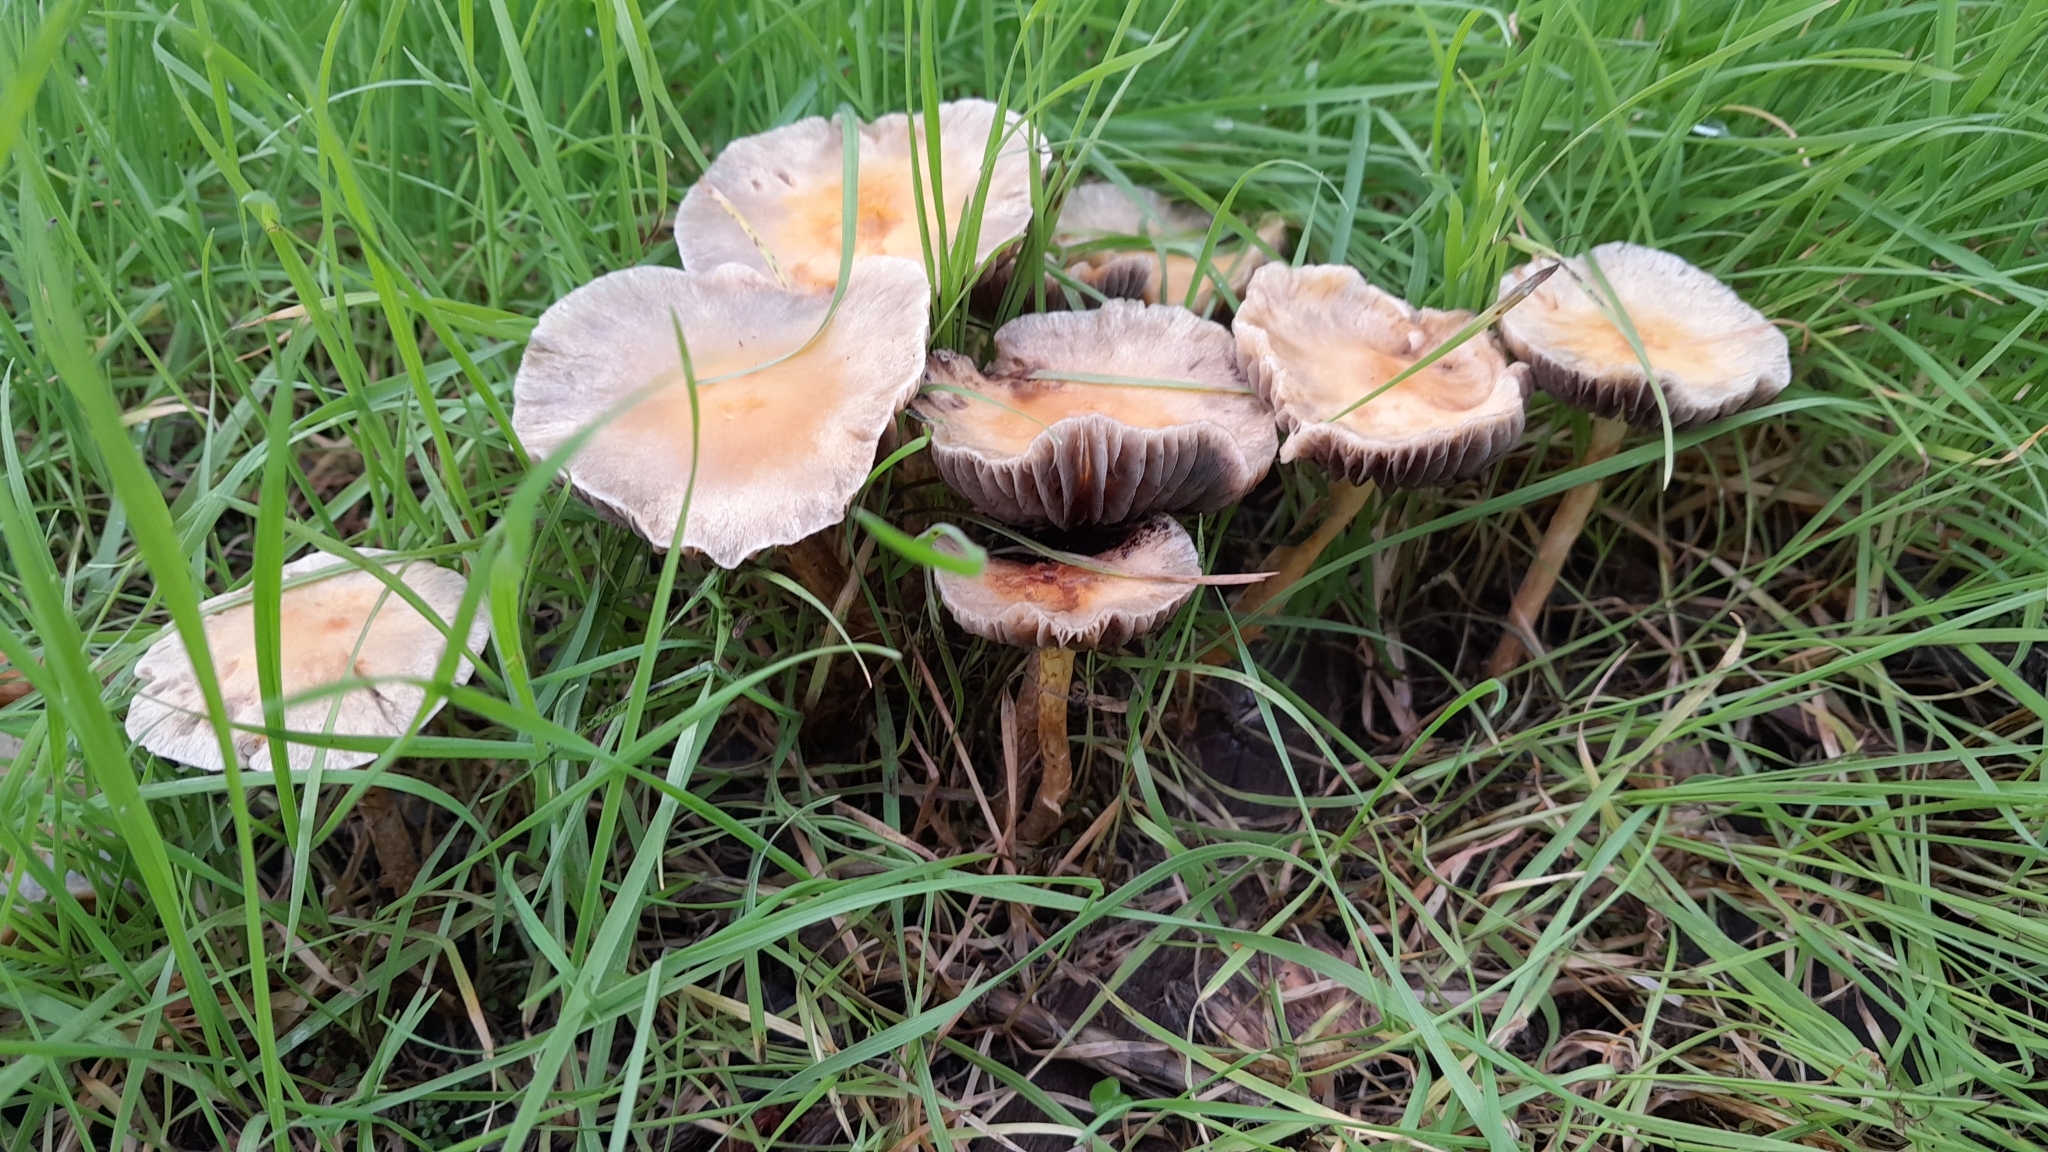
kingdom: Fungi
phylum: Basidiomycota
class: Agaricomycetes
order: Agaricales
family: Strophariaceae
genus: Leratiomyces
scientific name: Leratiomyces percevalii
